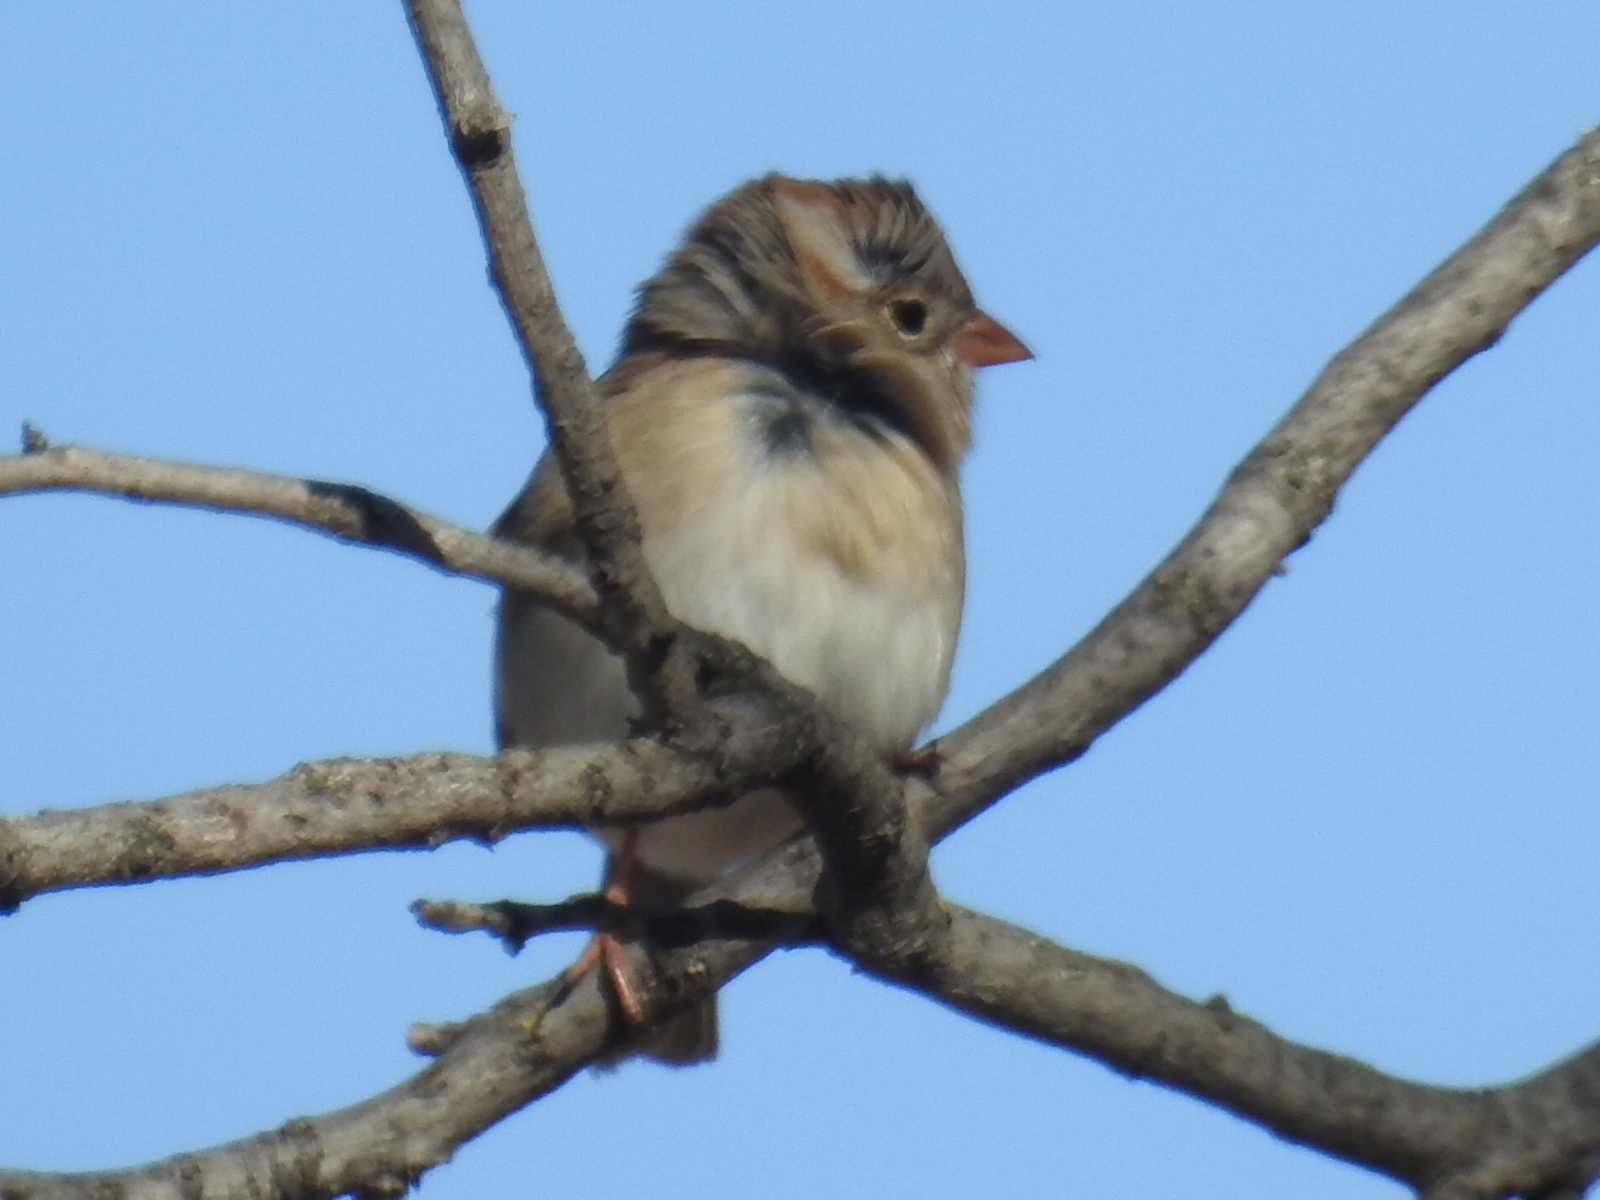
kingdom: Animalia
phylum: Chordata
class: Aves
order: Passeriformes
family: Passerellidae
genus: Spizella
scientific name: Spizella pusilla
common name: Field sparrow
